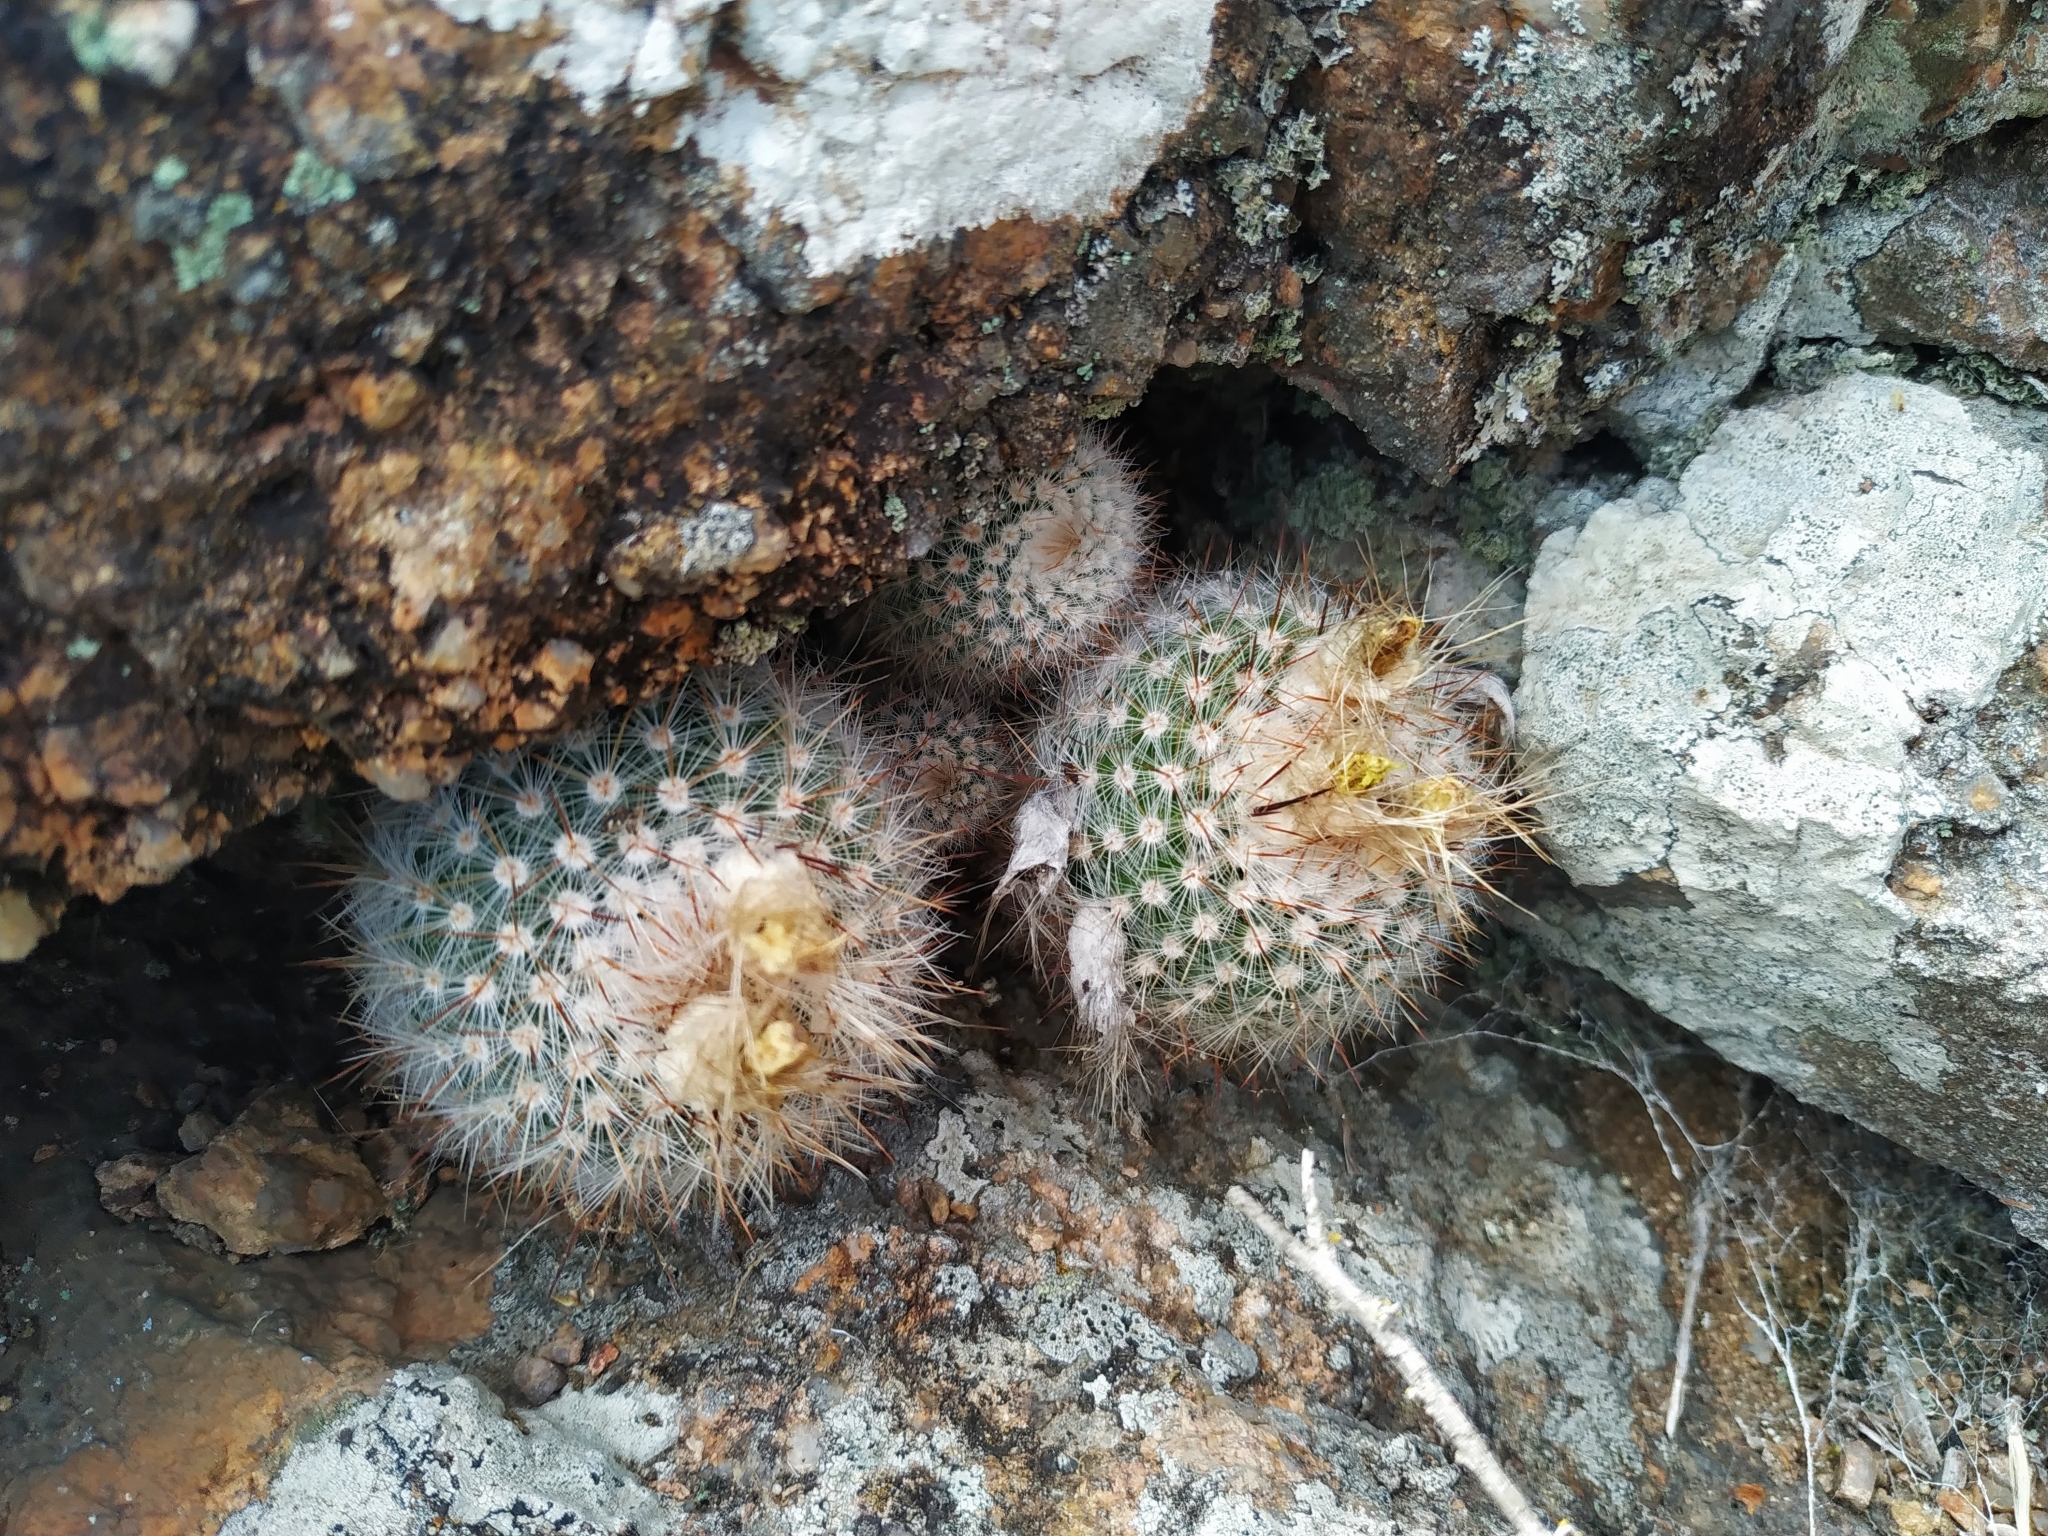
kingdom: Plantae
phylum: Tracheophyta
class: Magnoliopsida
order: Caryophyllales
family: Cactaceae
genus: Parodia
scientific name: Parodia scopa
